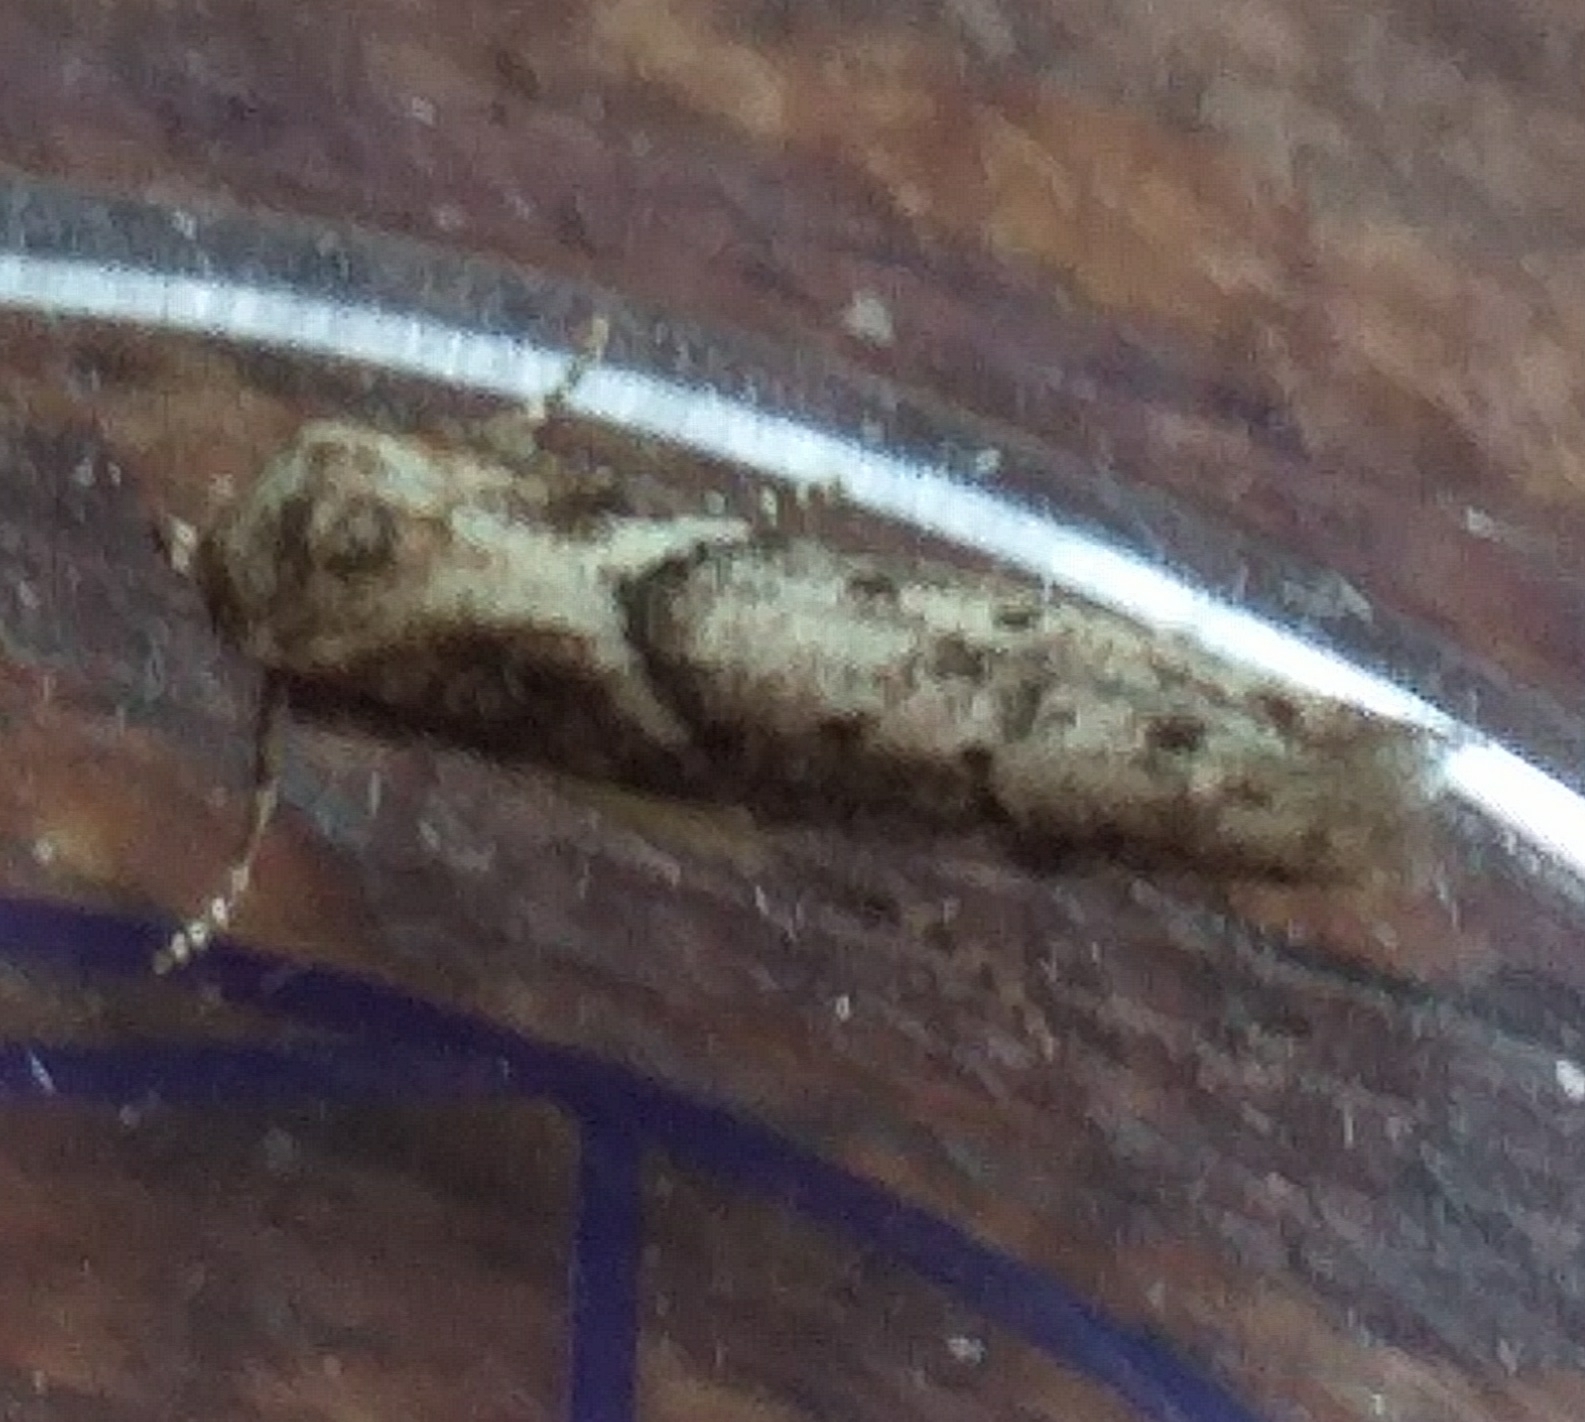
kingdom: Animalia
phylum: Arthropoda
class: Insecta
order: Lepidoptera
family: Blastobasidae
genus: Blastobasis
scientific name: Blastobasis adustella
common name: Dingy dowd
